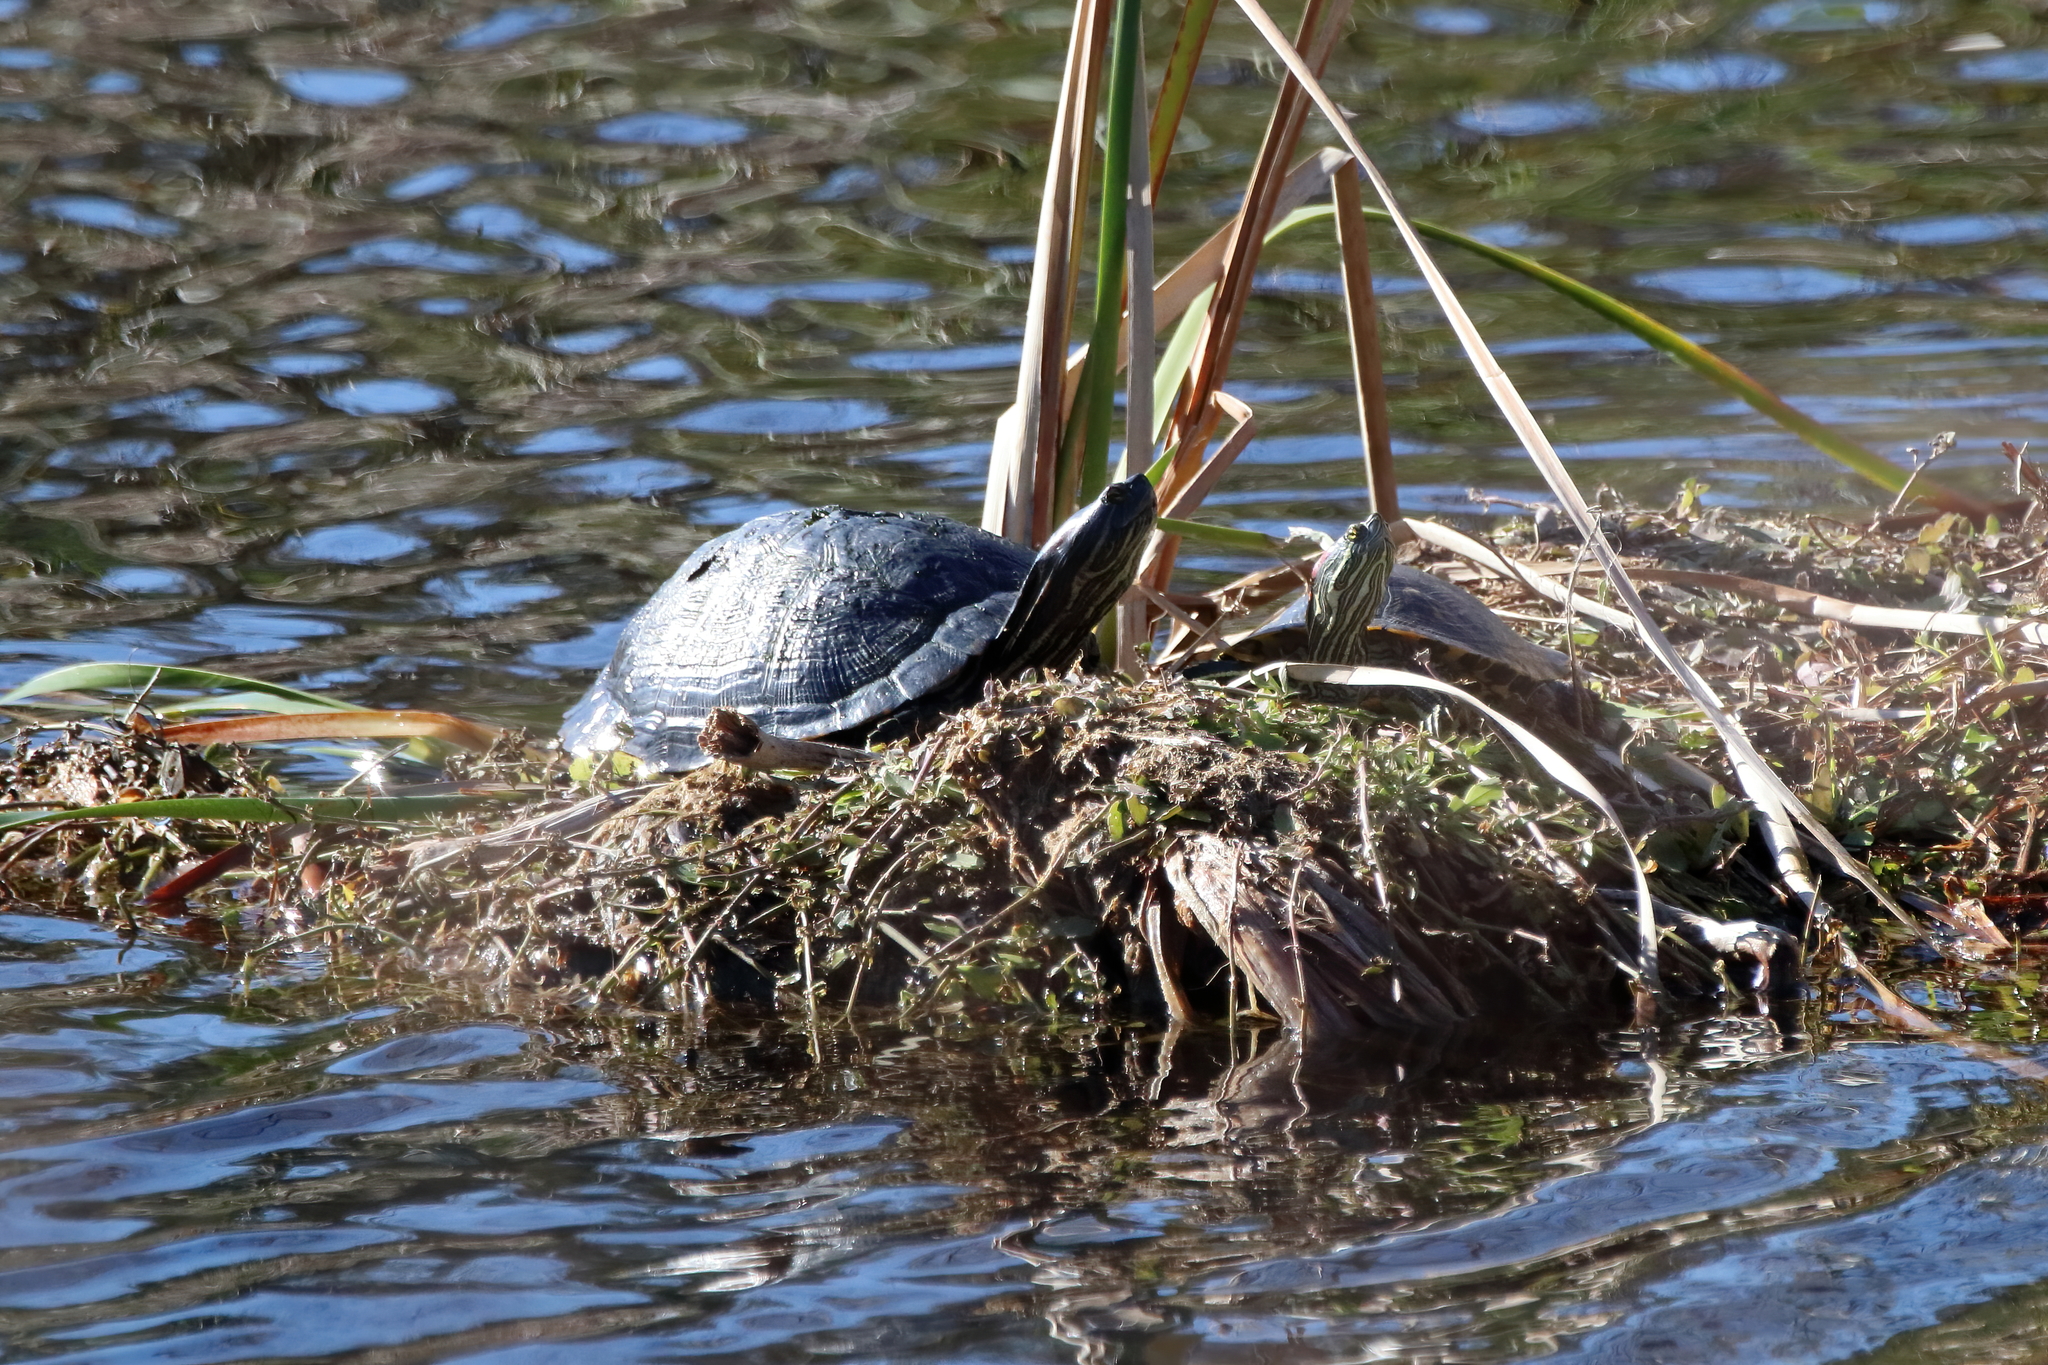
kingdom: Animalia
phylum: Chordata
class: Testudines
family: Emydidae
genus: Trachemys
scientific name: Trachemys scripta
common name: Slider
